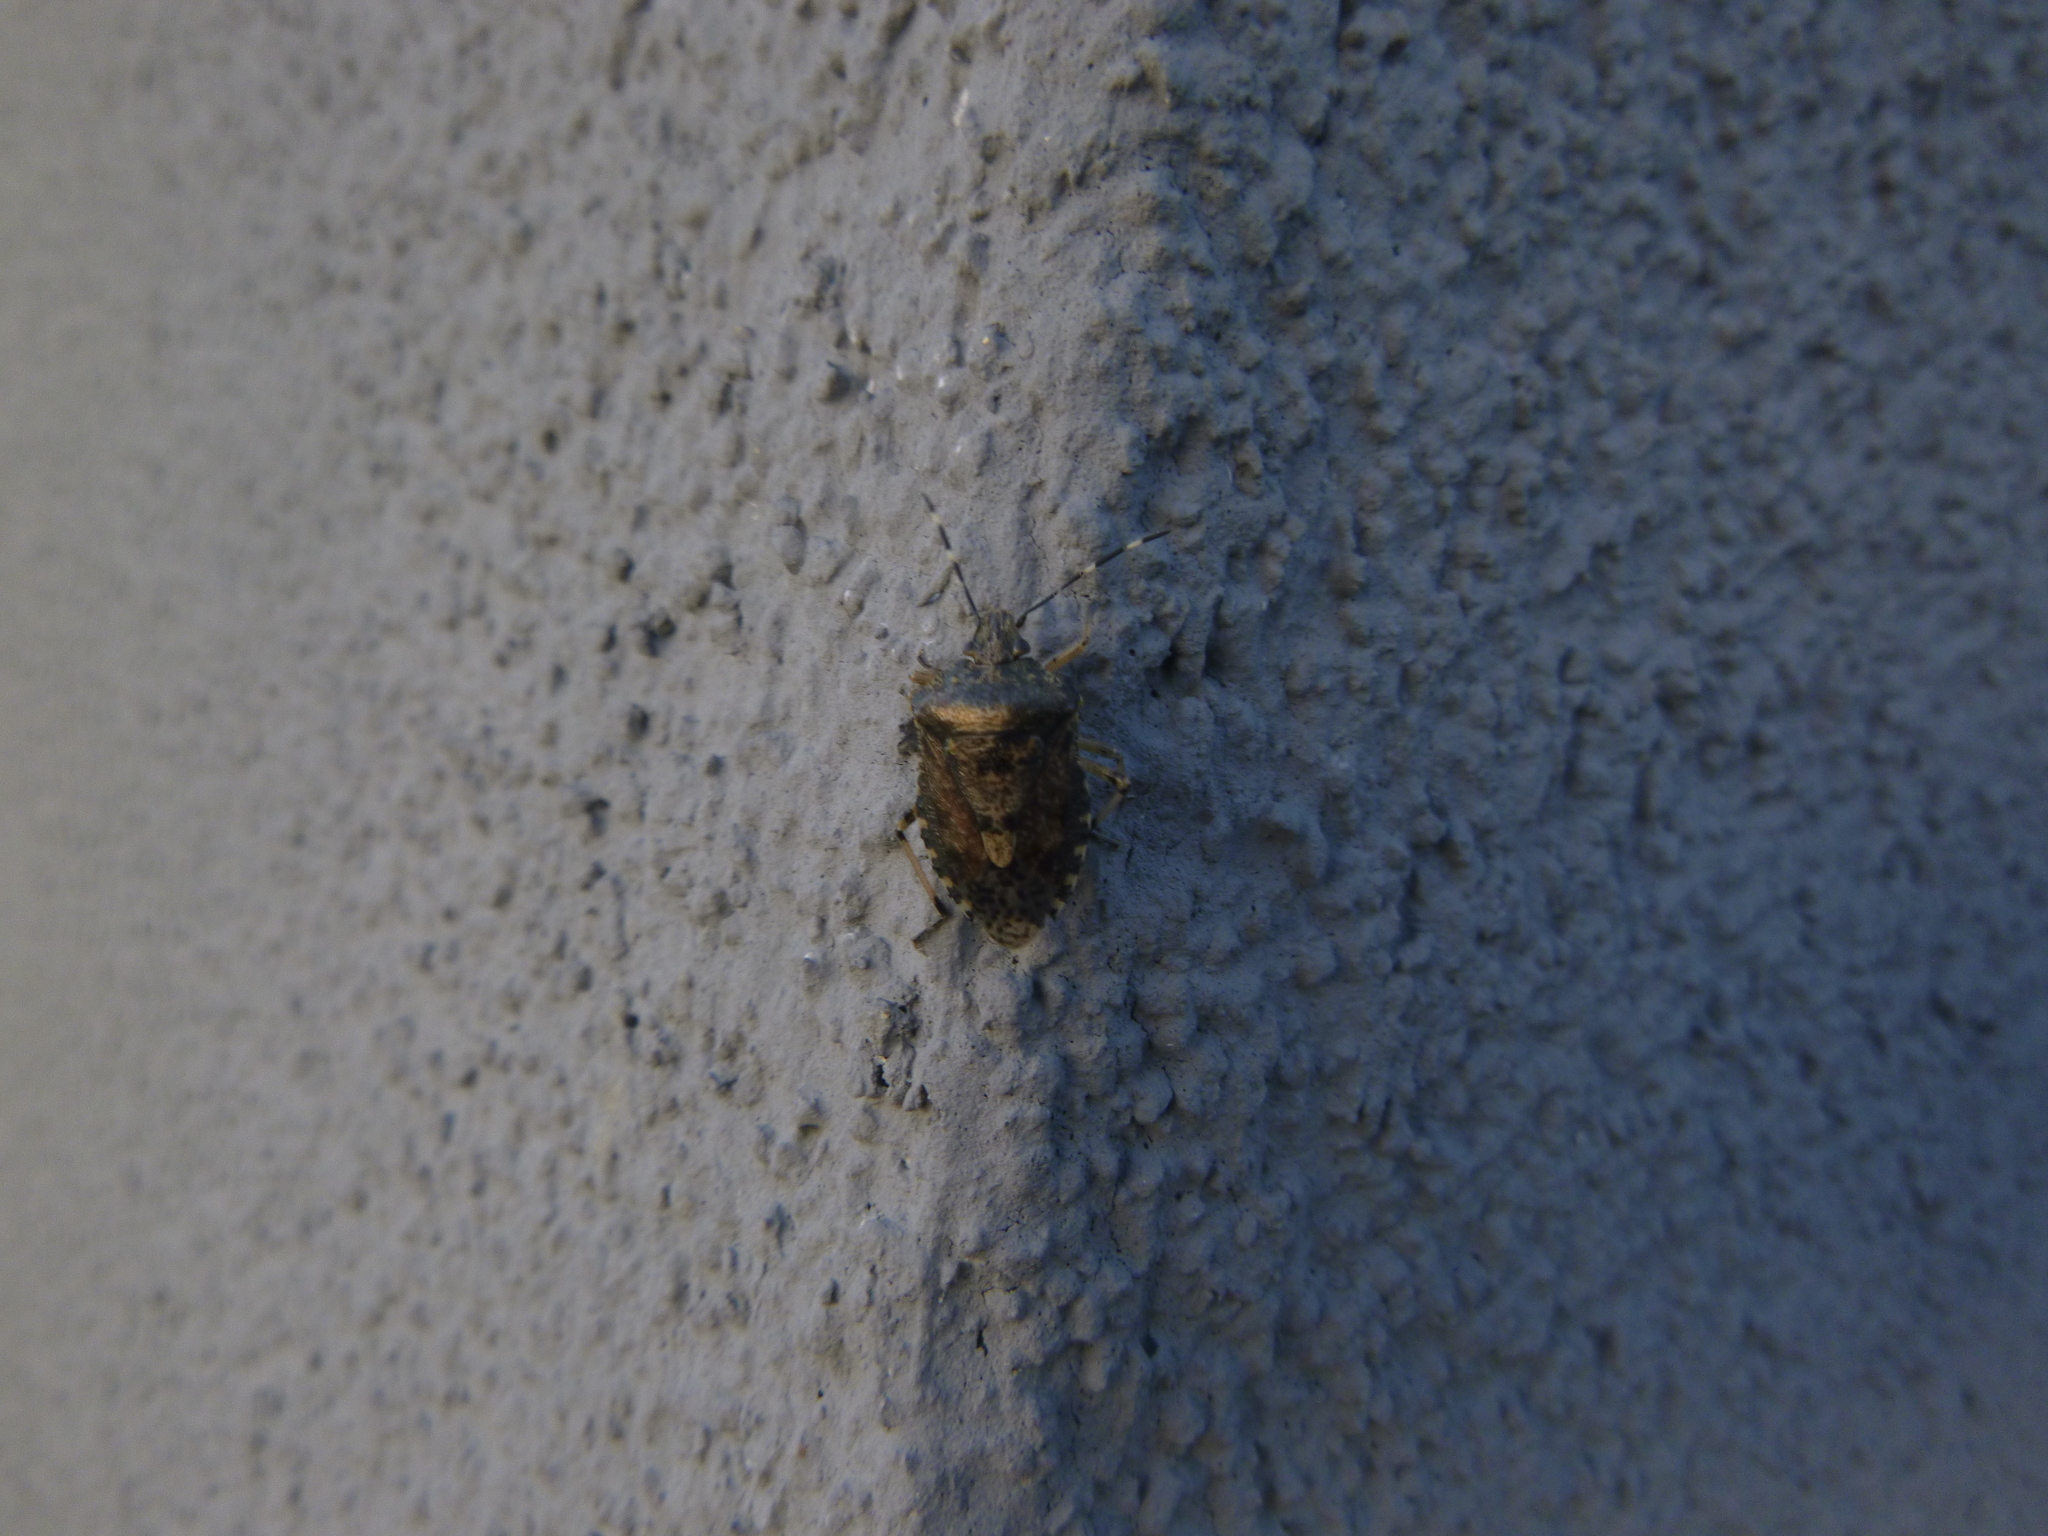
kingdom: Animalia
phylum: Arthropoda
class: Insecta
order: Hemiptera
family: Pentatomidae
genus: Rhaphigaster
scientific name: Rhaphigaster nebulosa
